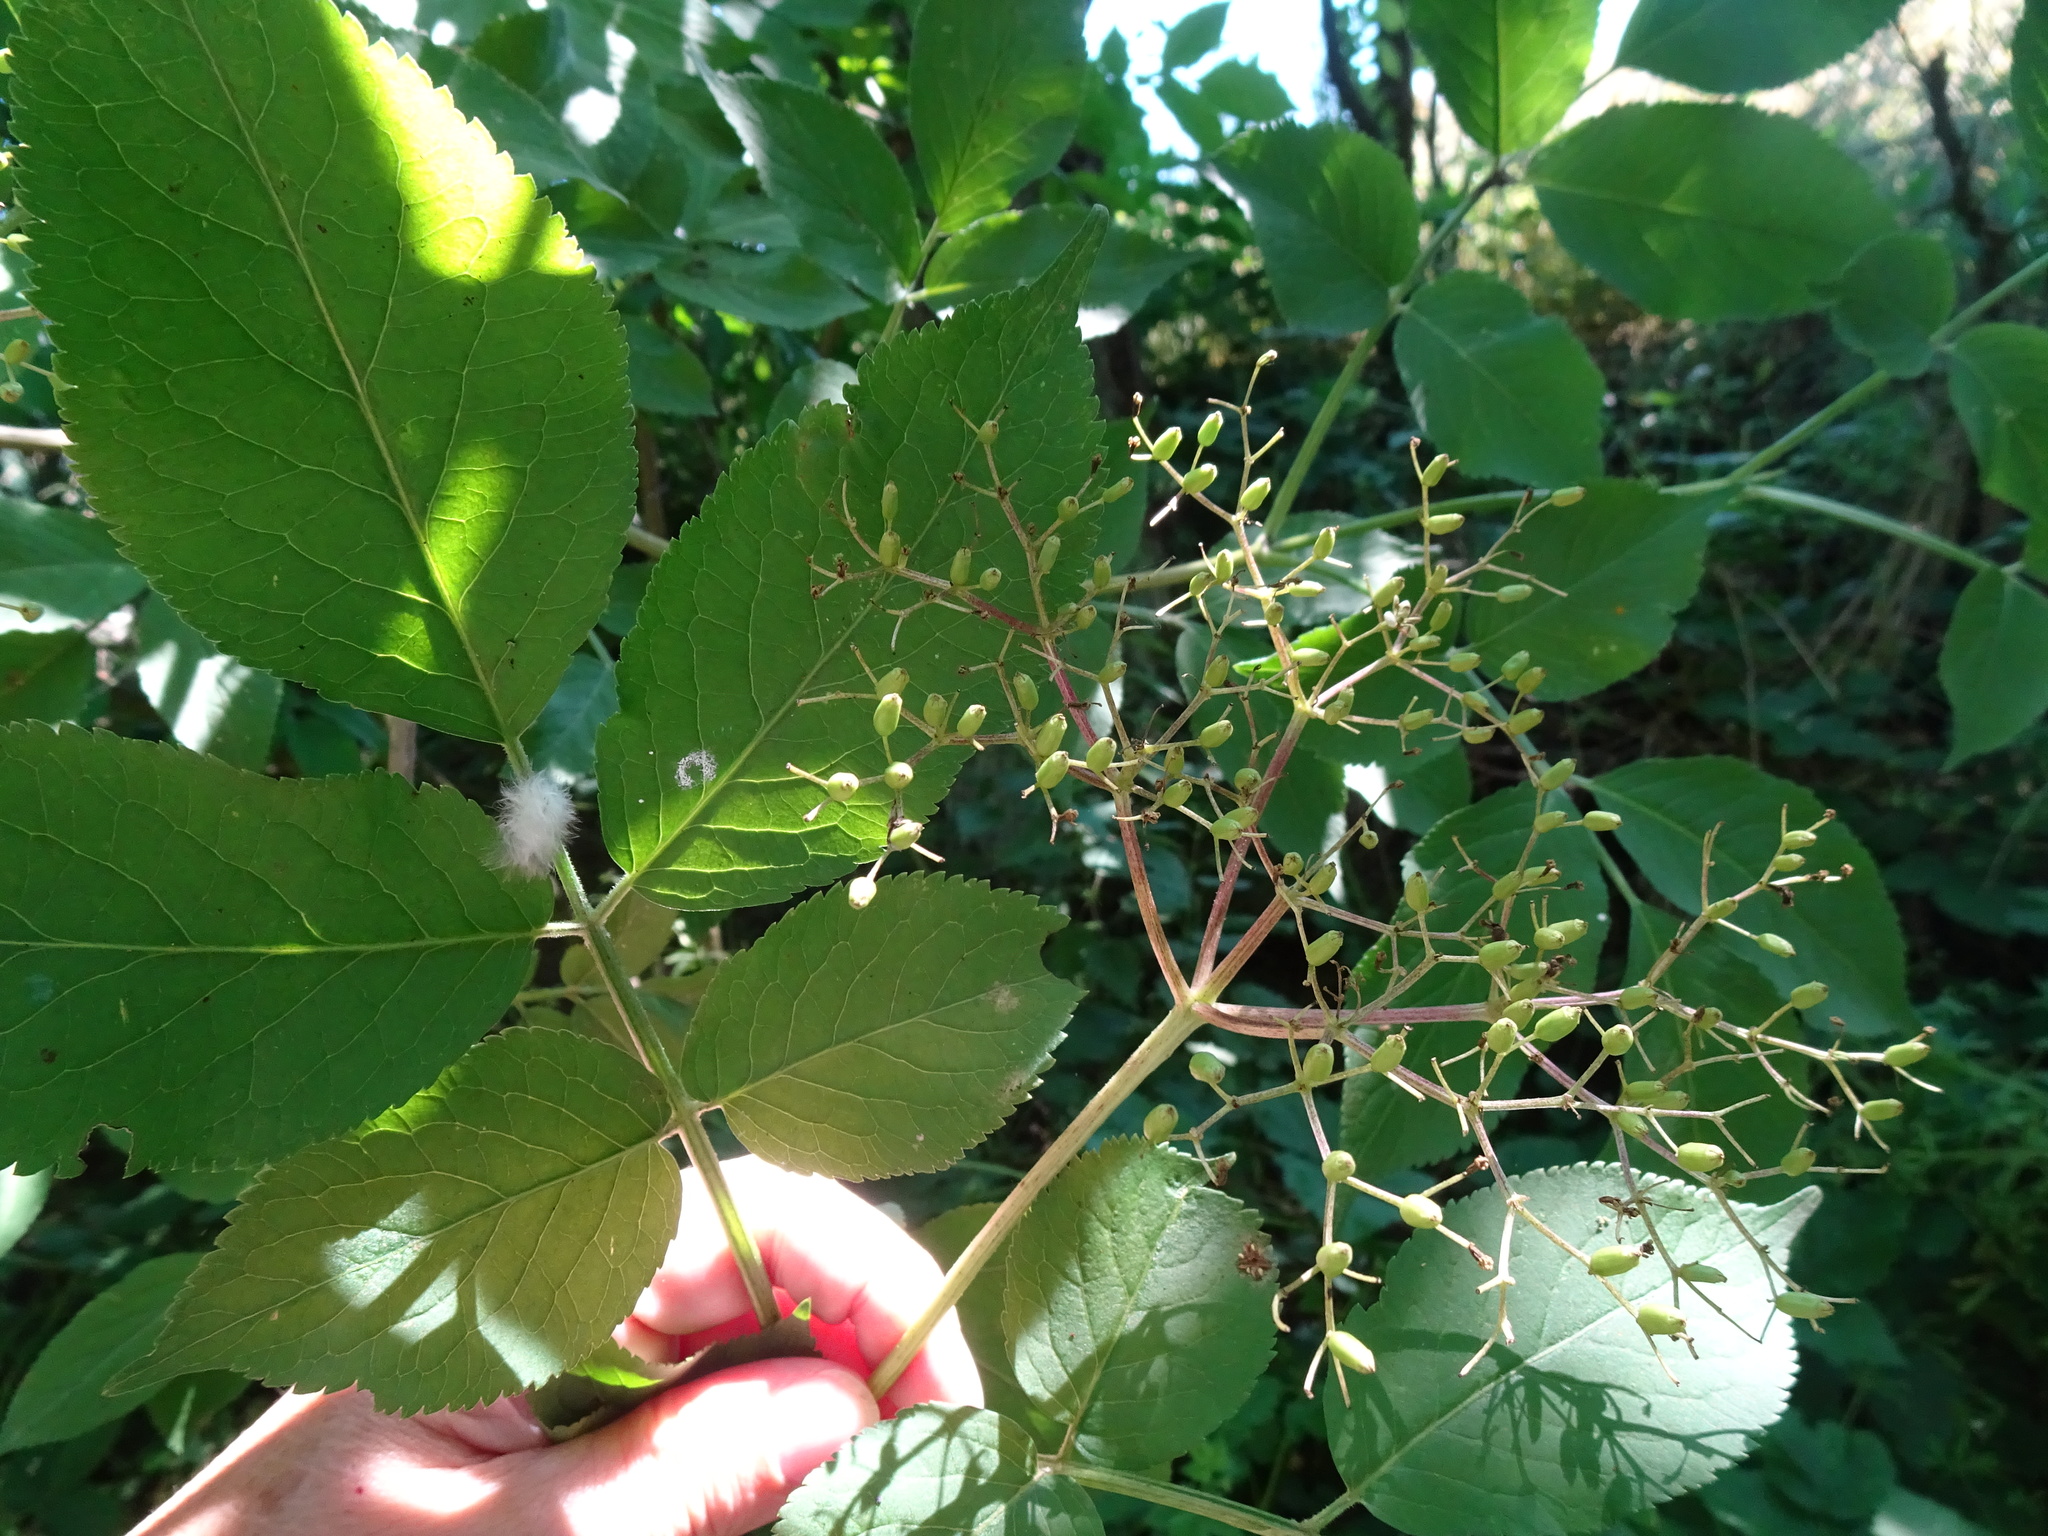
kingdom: Plantae
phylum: Tracheophyta
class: Magnoliopsida
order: Dipsacales
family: Viburnaceae
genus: Sambucus
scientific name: Sambucus nigra
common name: Elder
